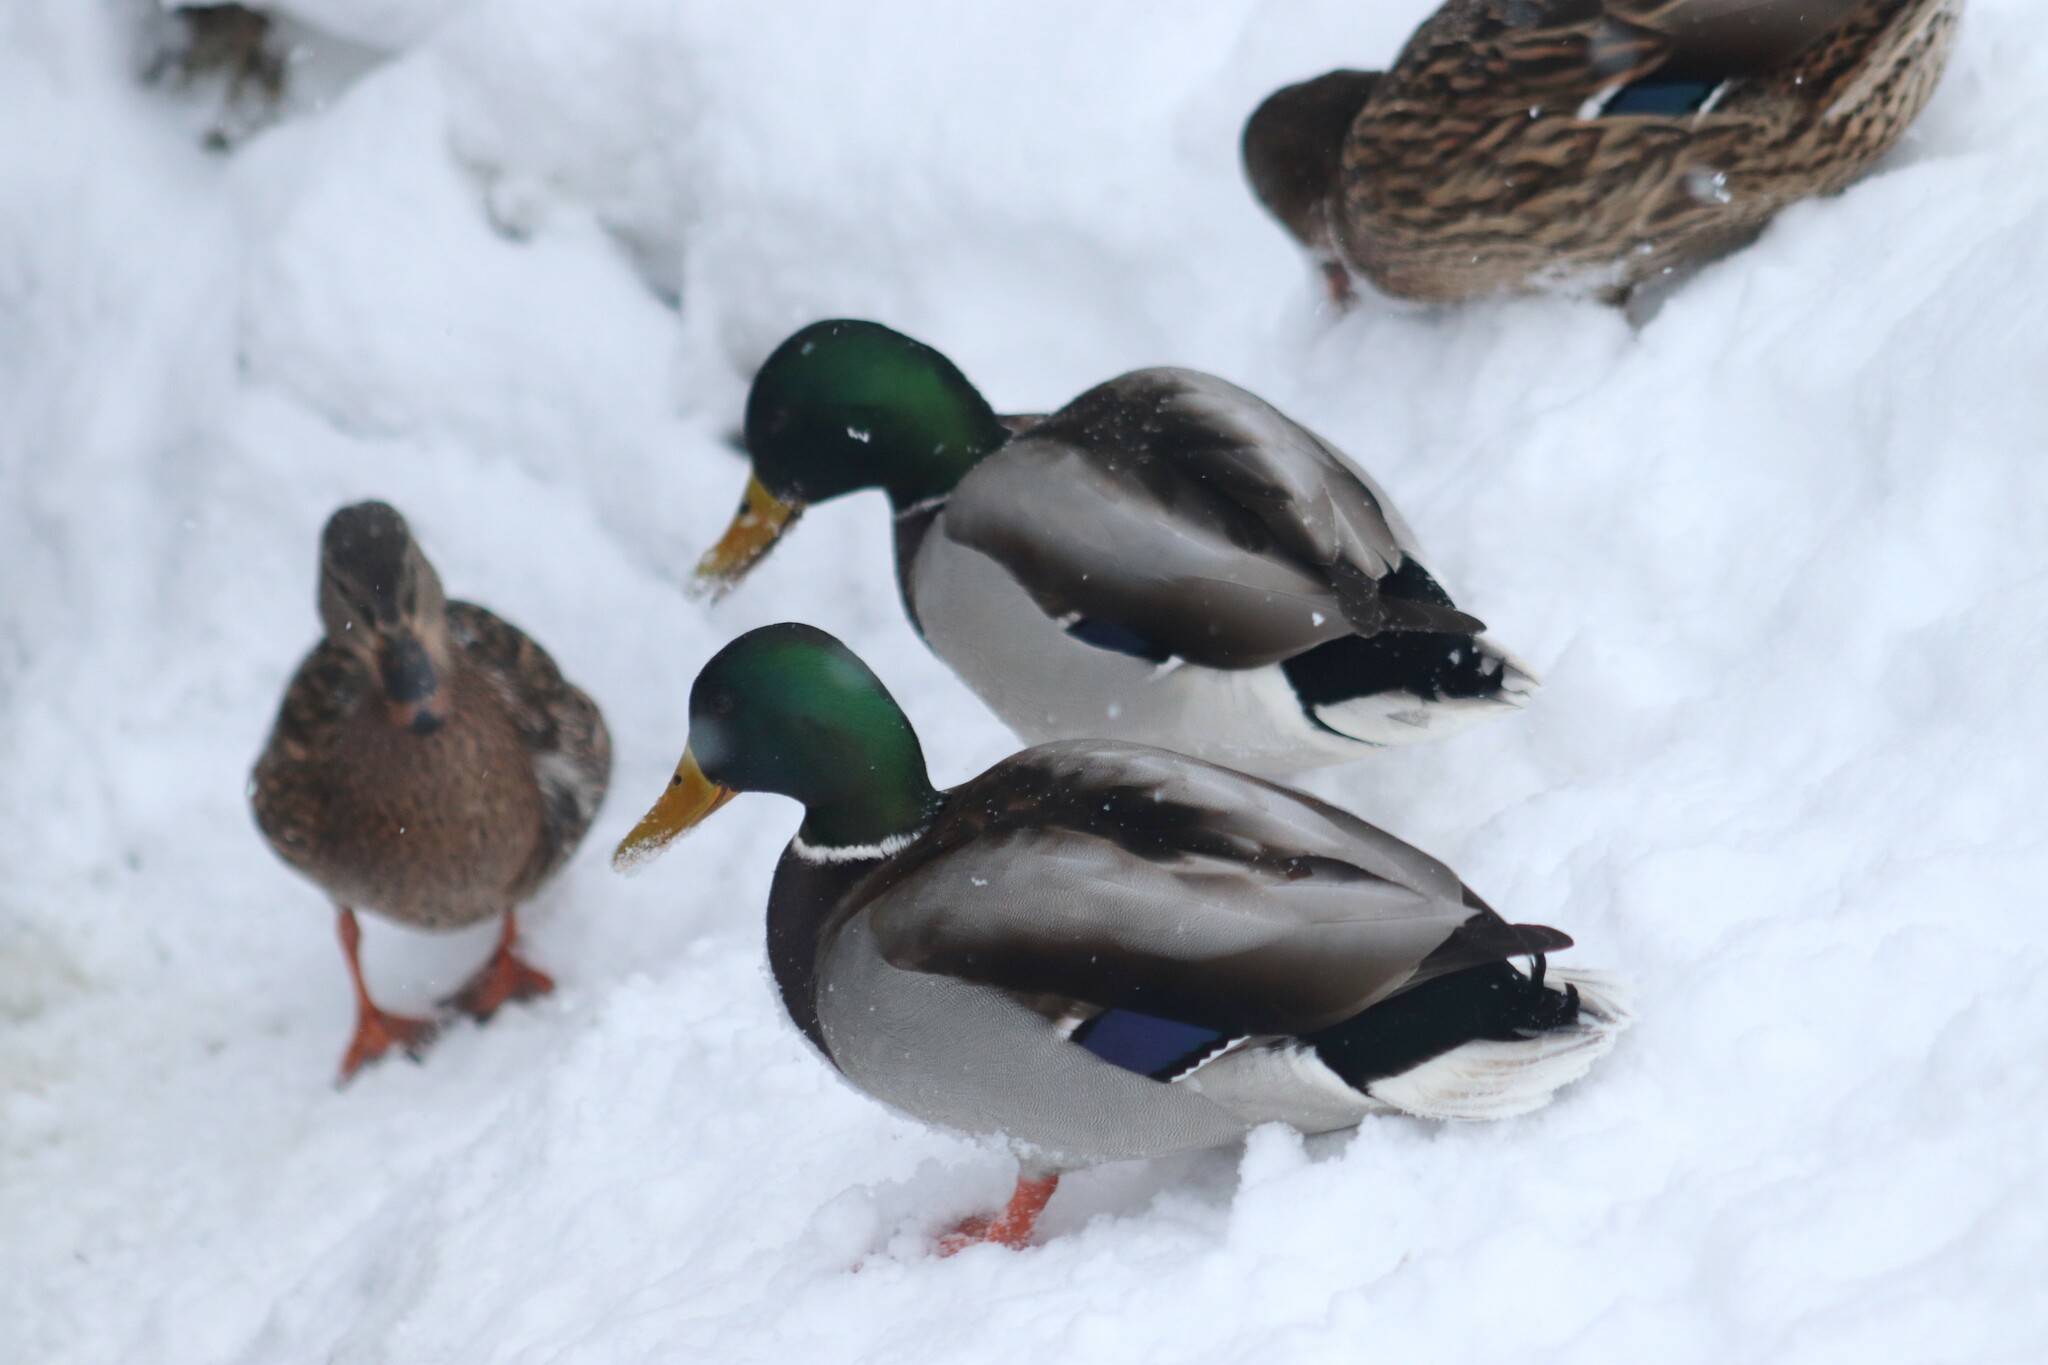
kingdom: Animalia
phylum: Chordata
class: Aves
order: Anseriformes
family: Anatidae
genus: Anas
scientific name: Anas platyrhynchos
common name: Mallard
